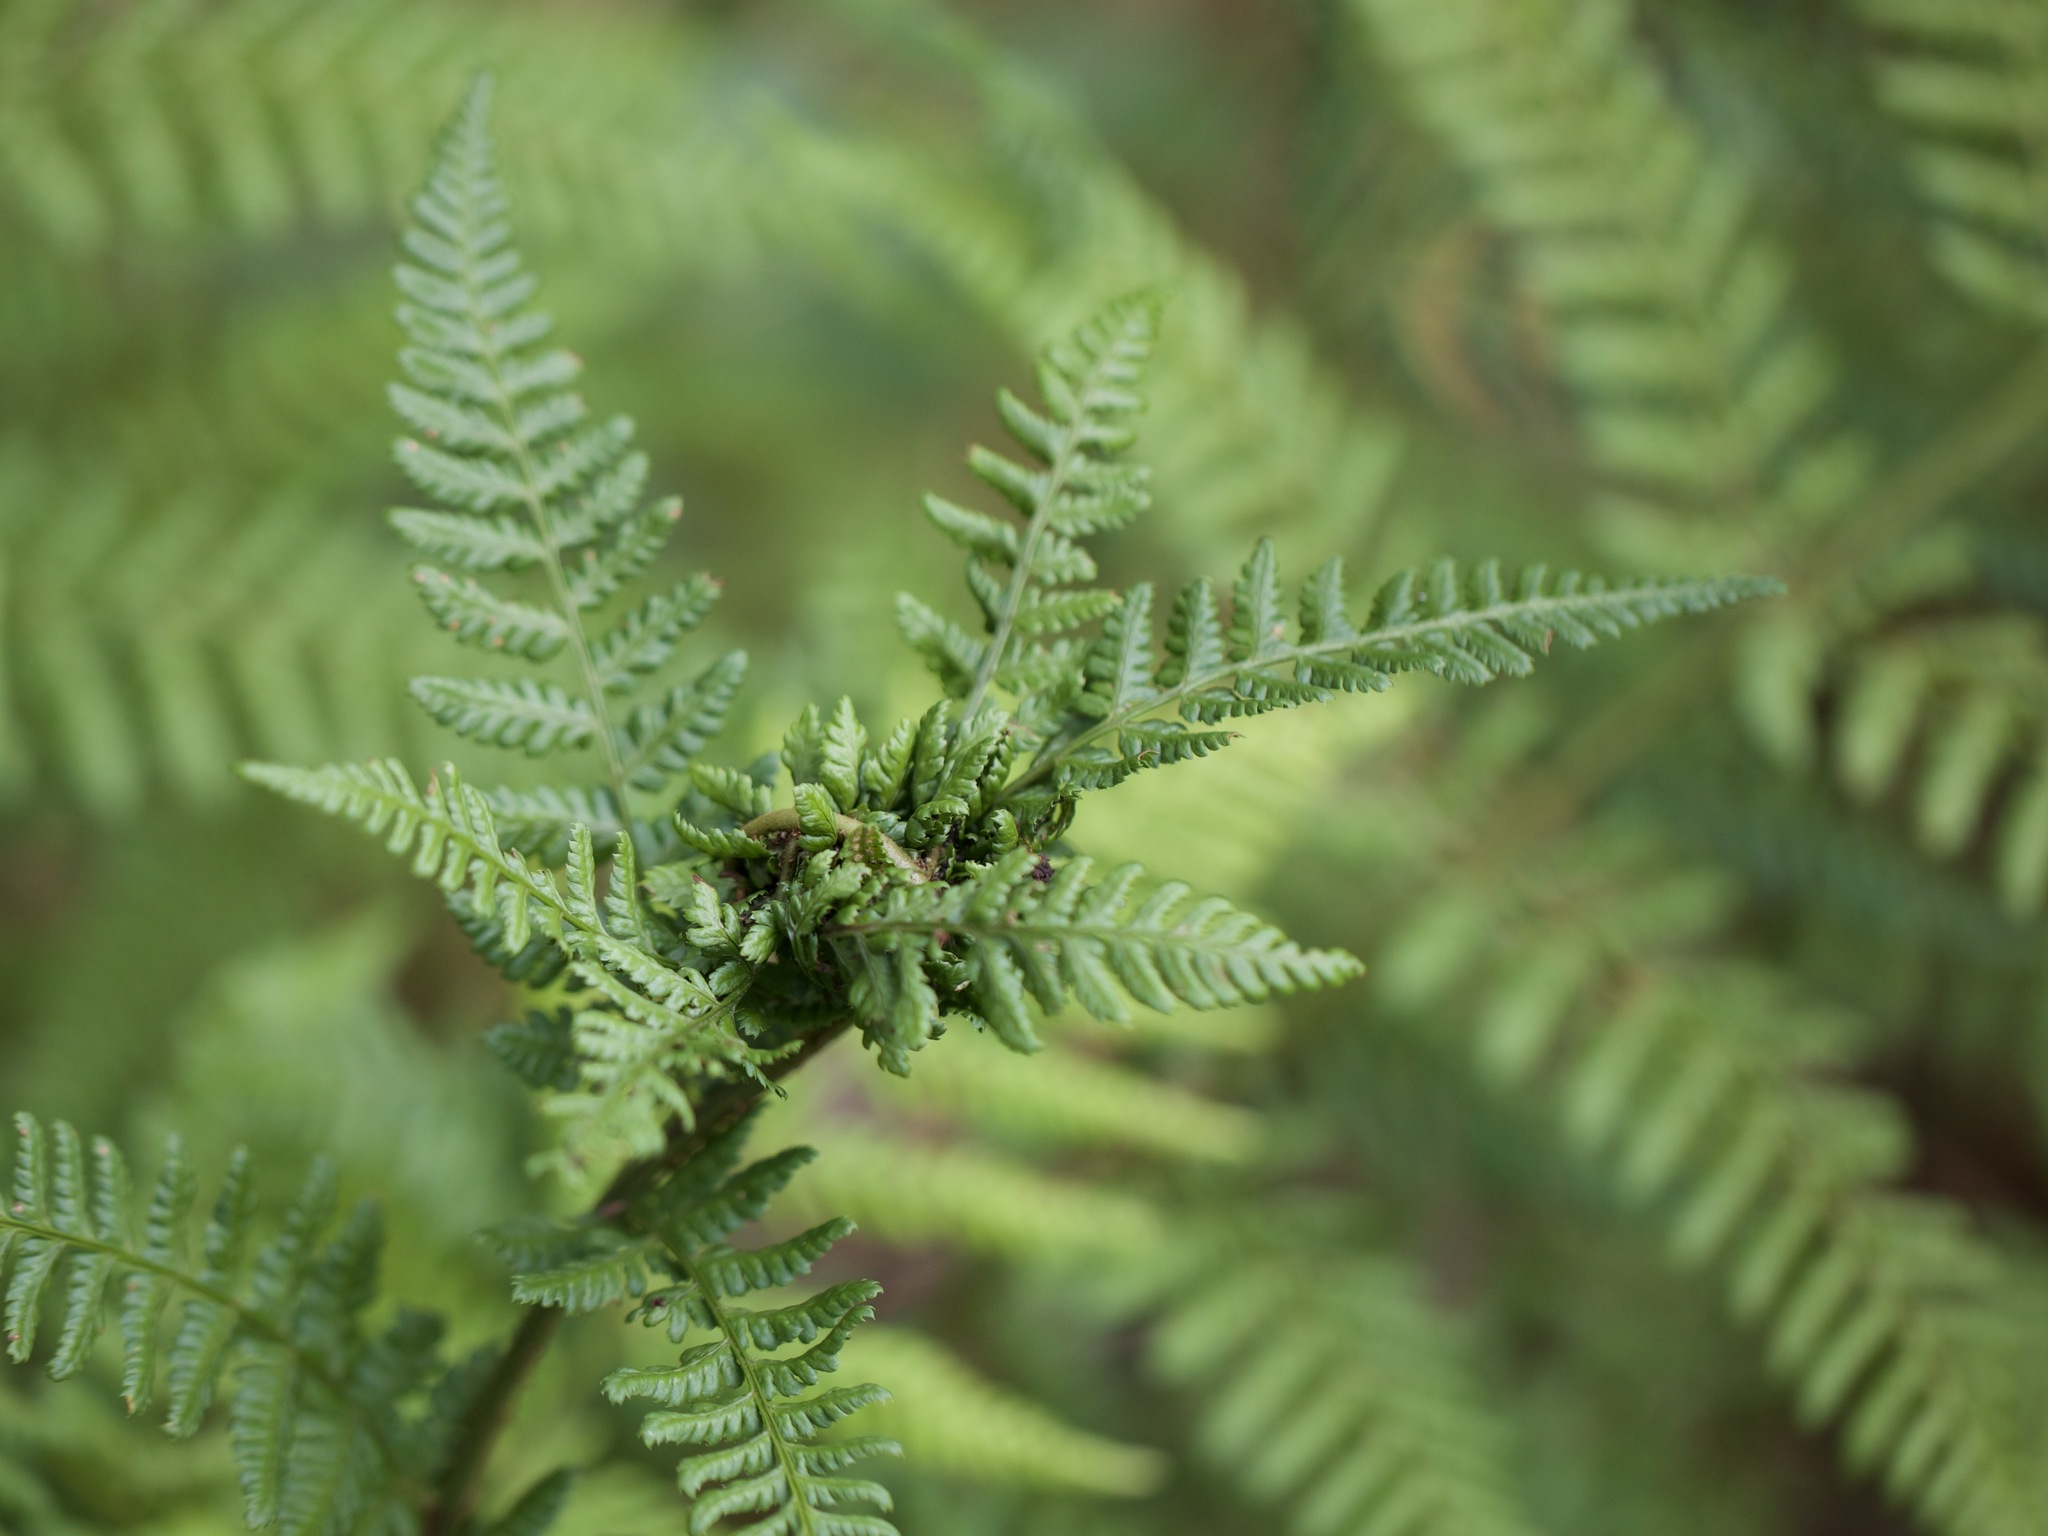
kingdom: Animalia
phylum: Arthropoda
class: Insecta
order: Diptera
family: Anthomyiidae
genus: Chirosia
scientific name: Chirosia betuleti
